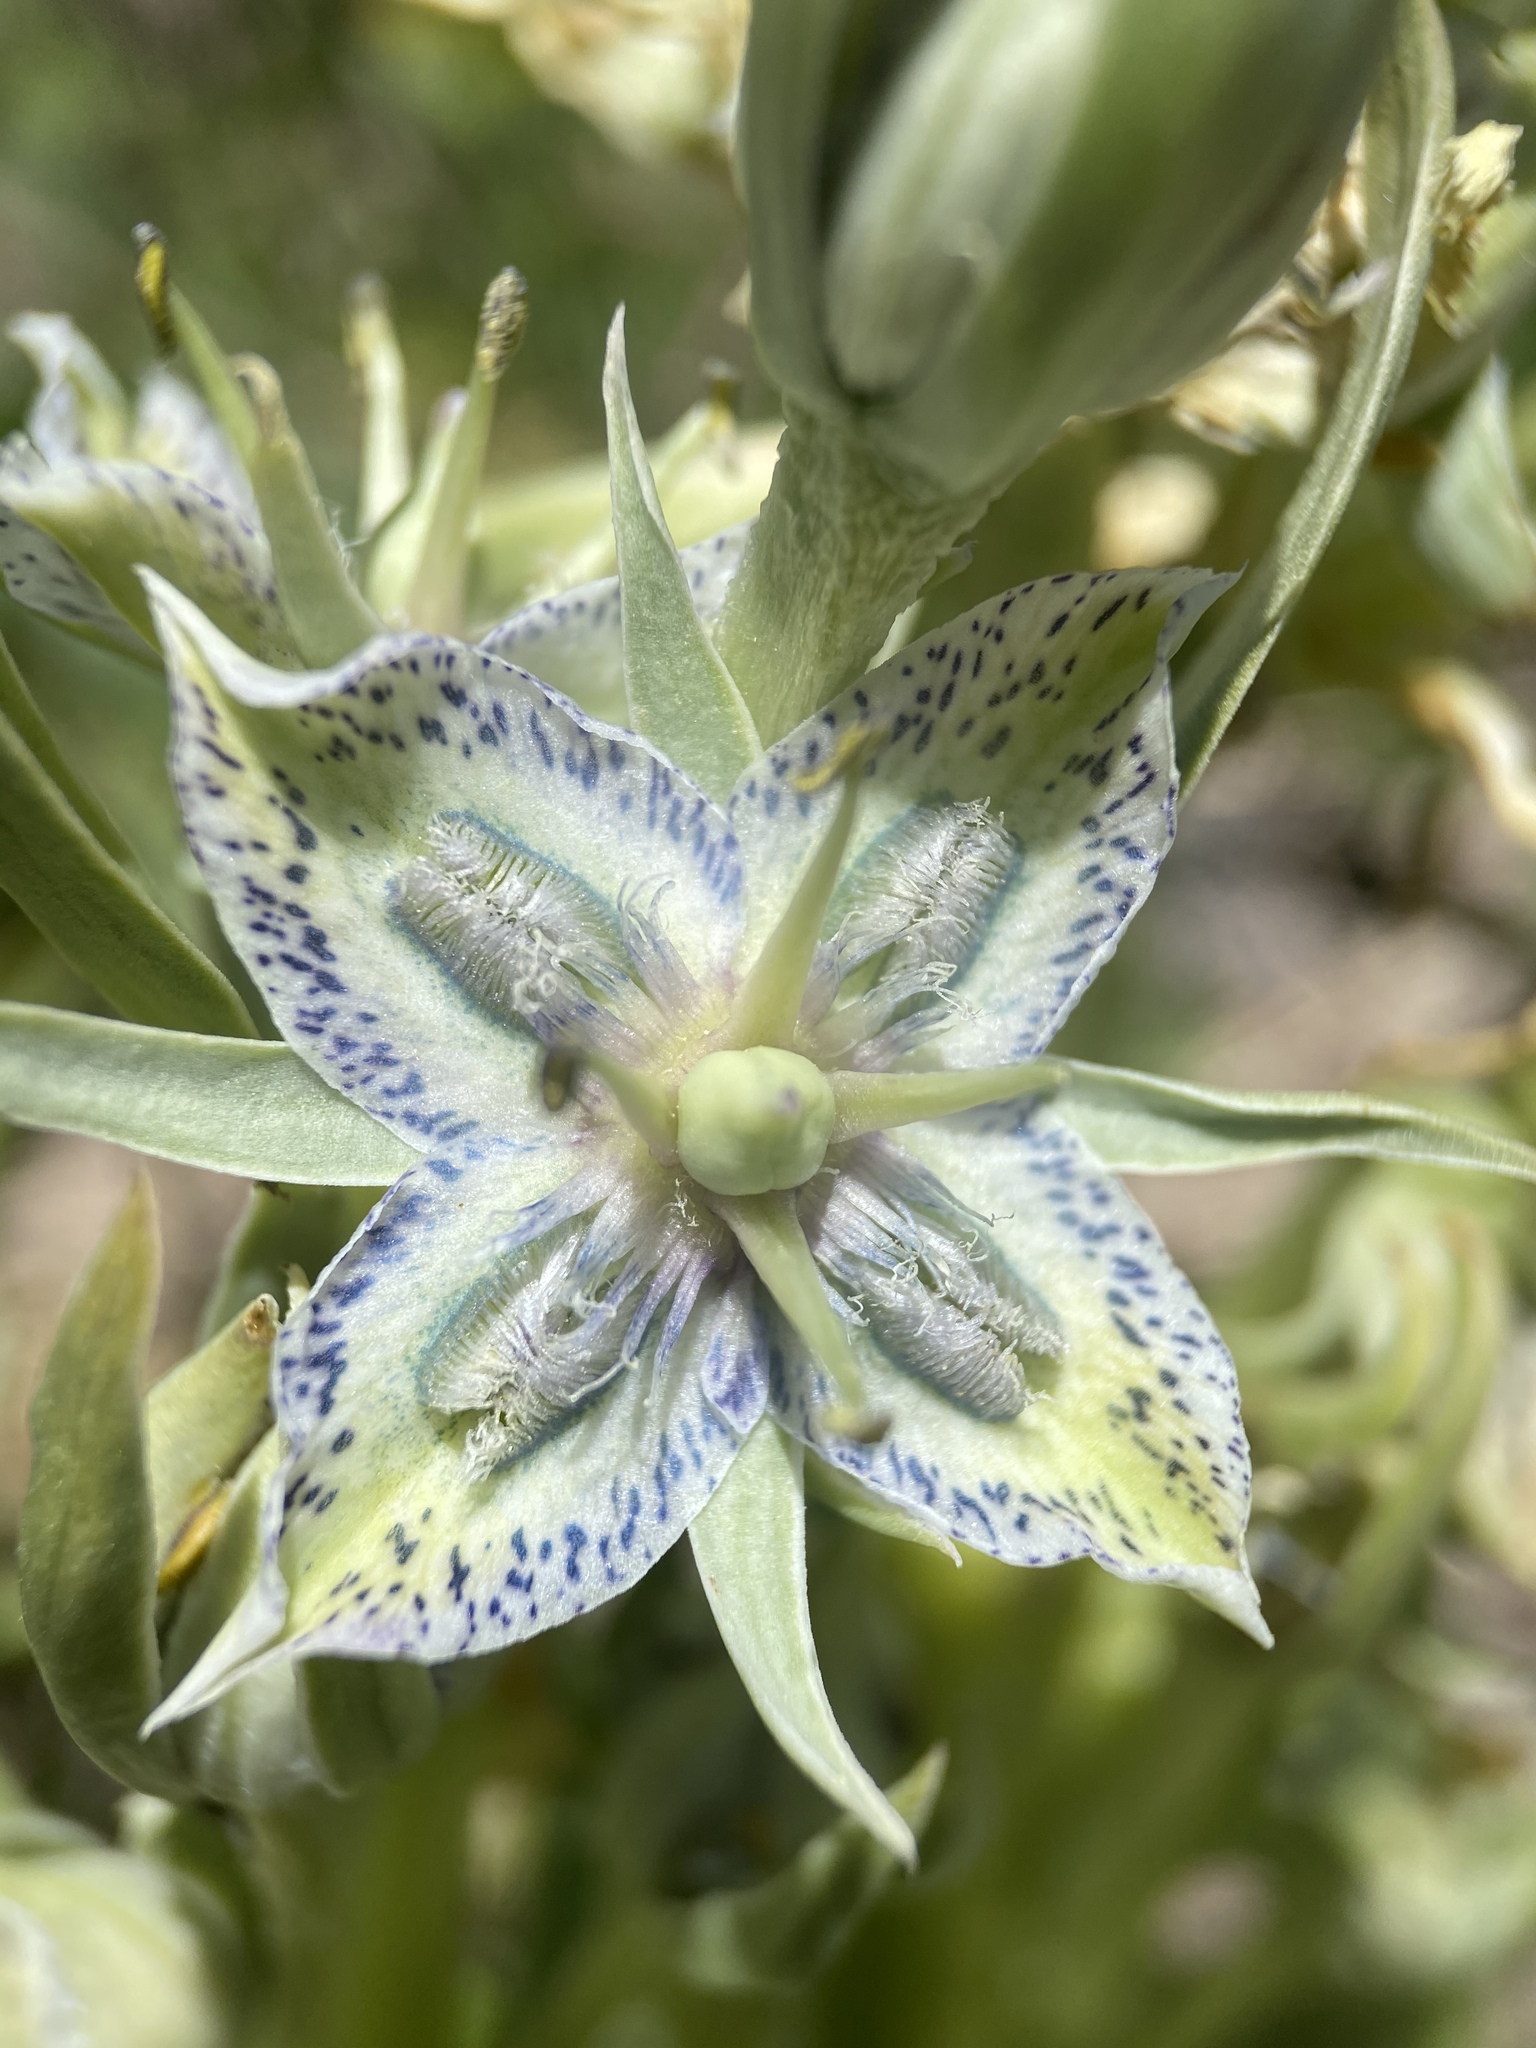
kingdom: Plantae
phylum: Tracheophyta
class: Magnoliopsida
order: Gentianales
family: Gentianaceae
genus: Frasera
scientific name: Frasera speciosa
